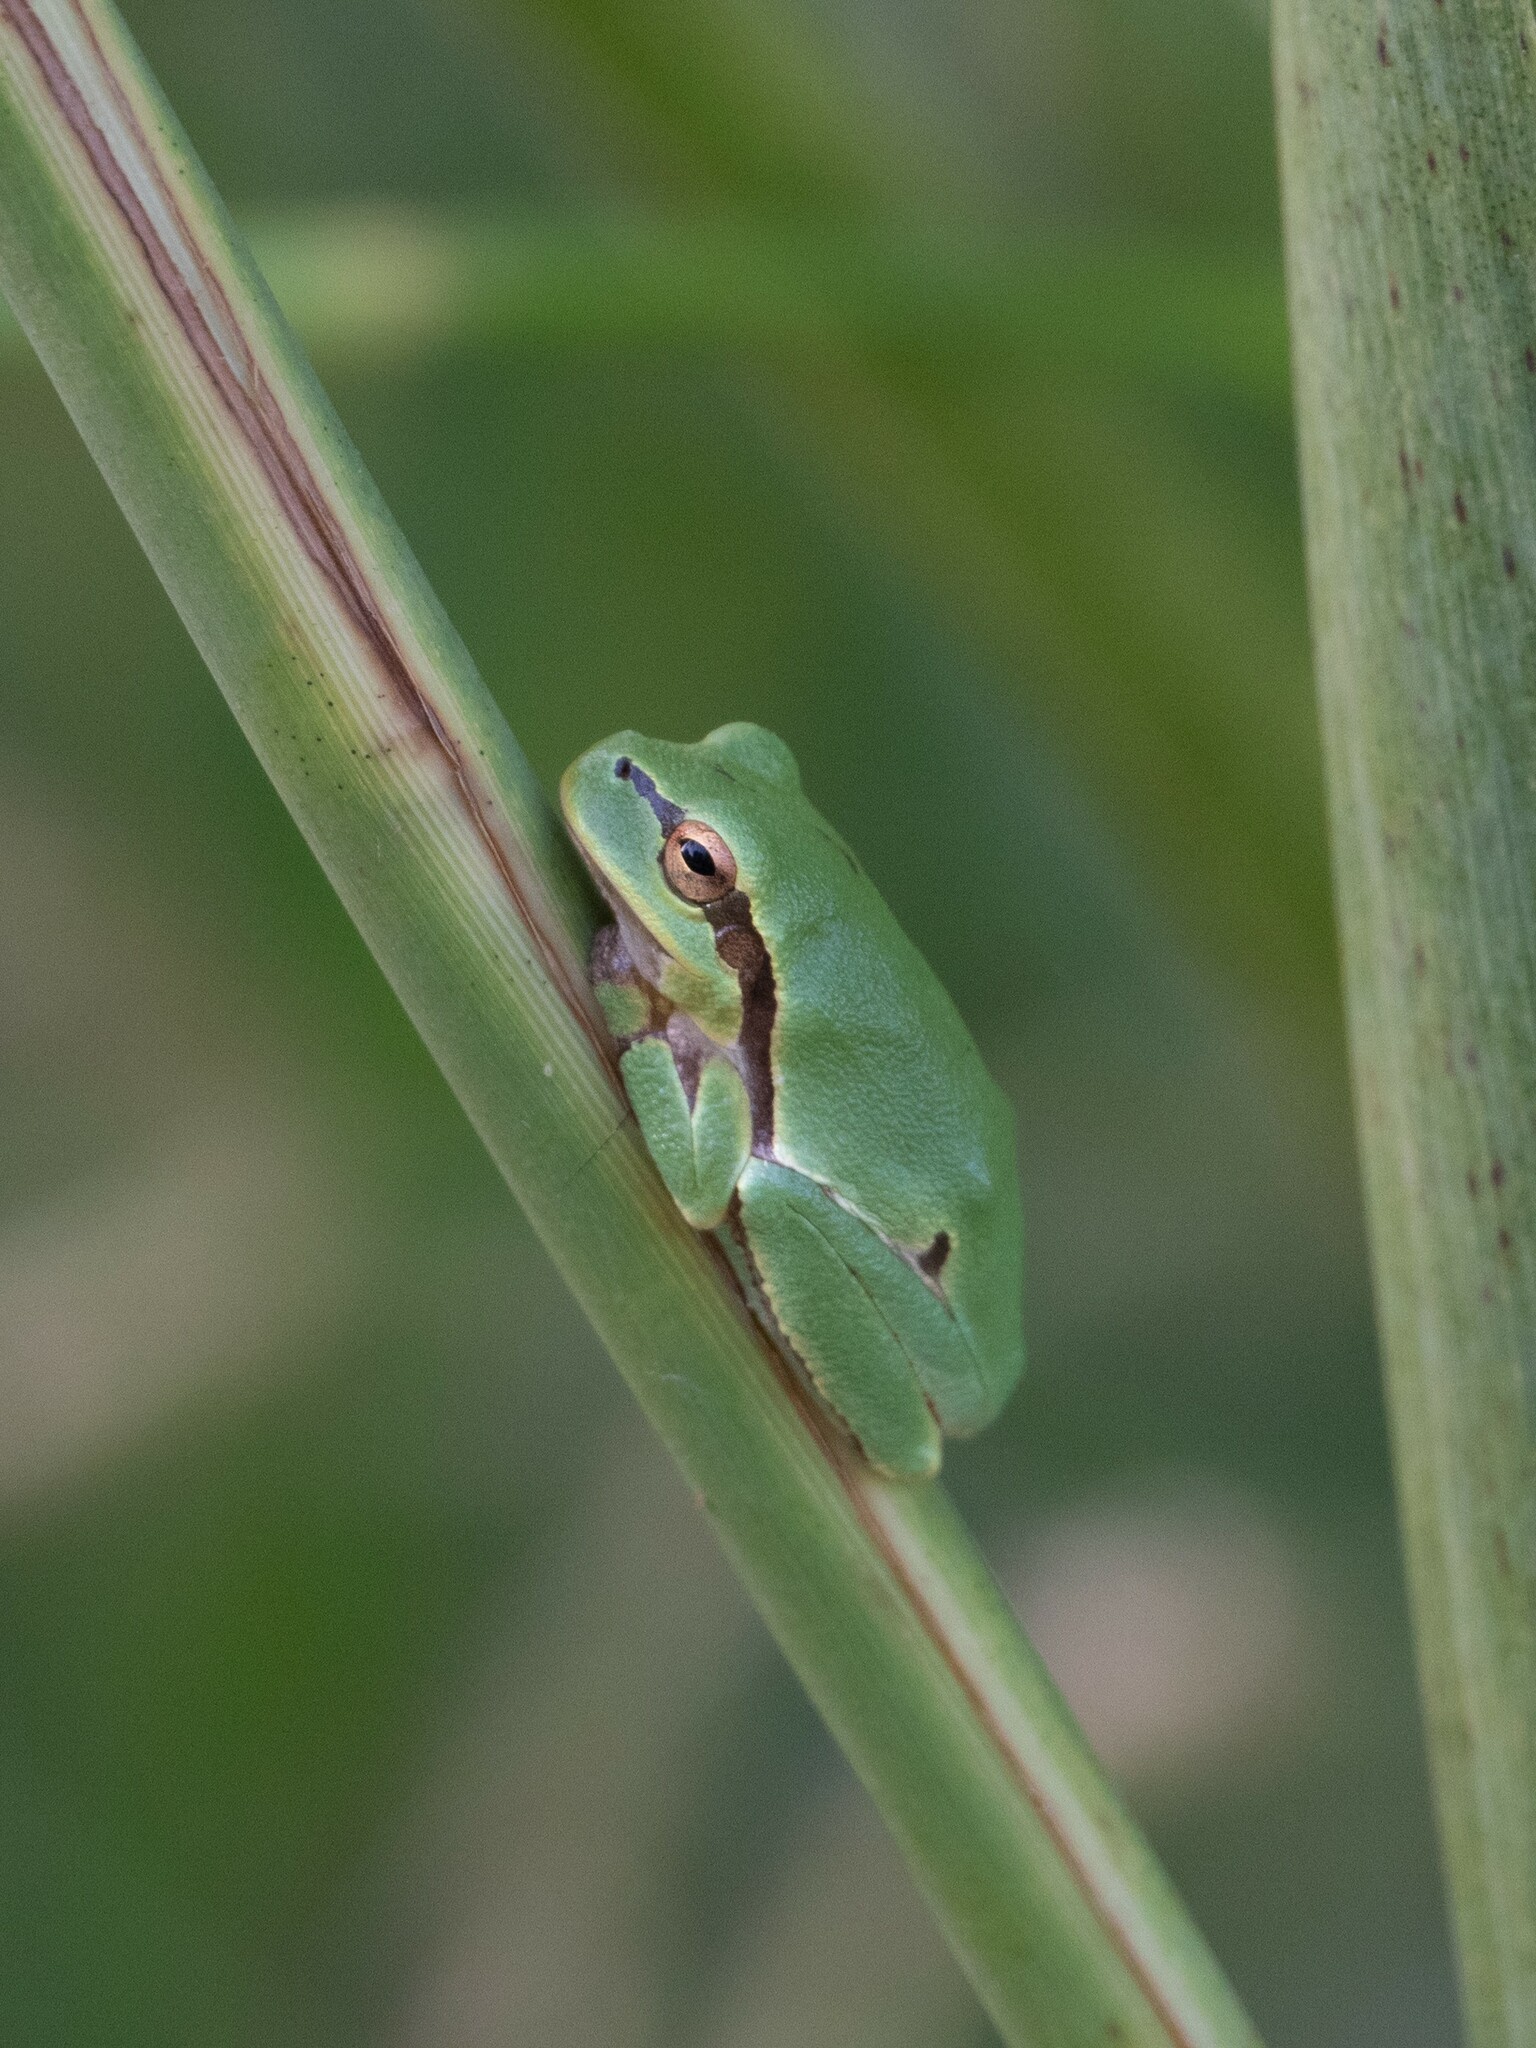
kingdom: Animalia
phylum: Chordata
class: Amphibia
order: Anura
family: Hylidae
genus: Hyla
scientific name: Hyla orientalis
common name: Caucasian treefrog
